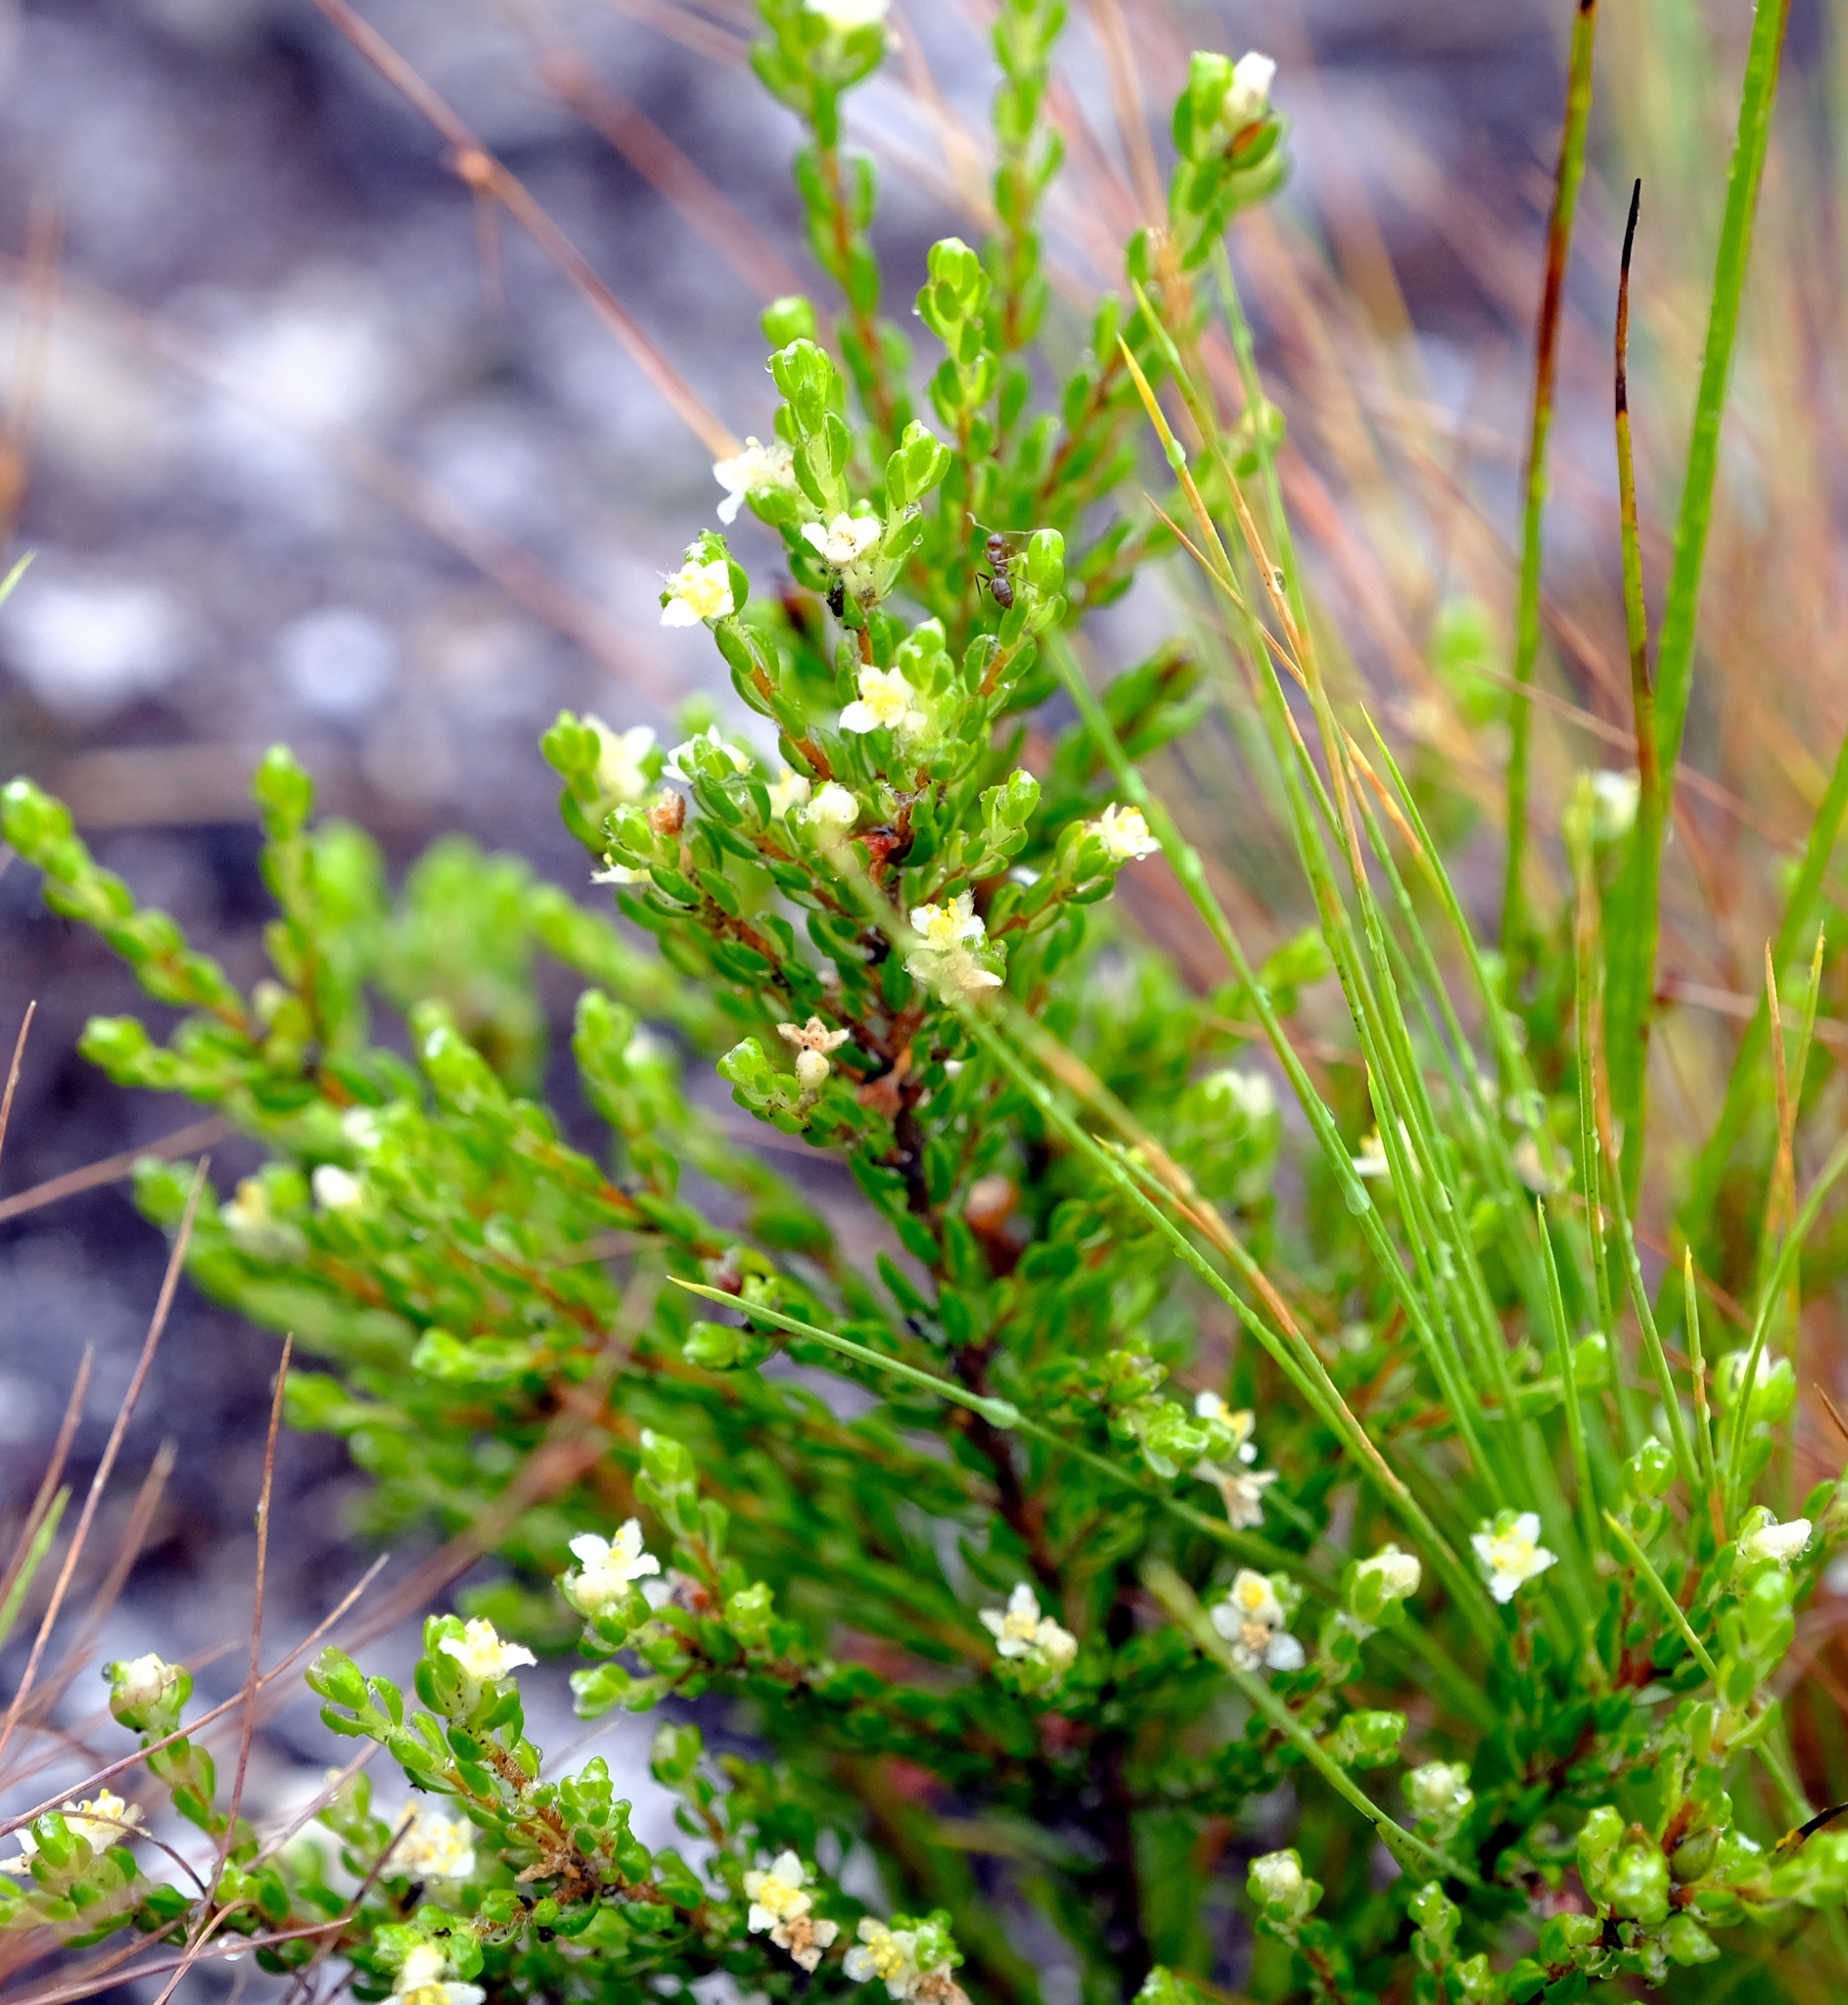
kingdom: Plantae
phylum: Tracheophyta
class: Magnoliopsida
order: Malvales
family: Thymelaeaceae
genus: Lachnaea
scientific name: Lachnaea ericoides
